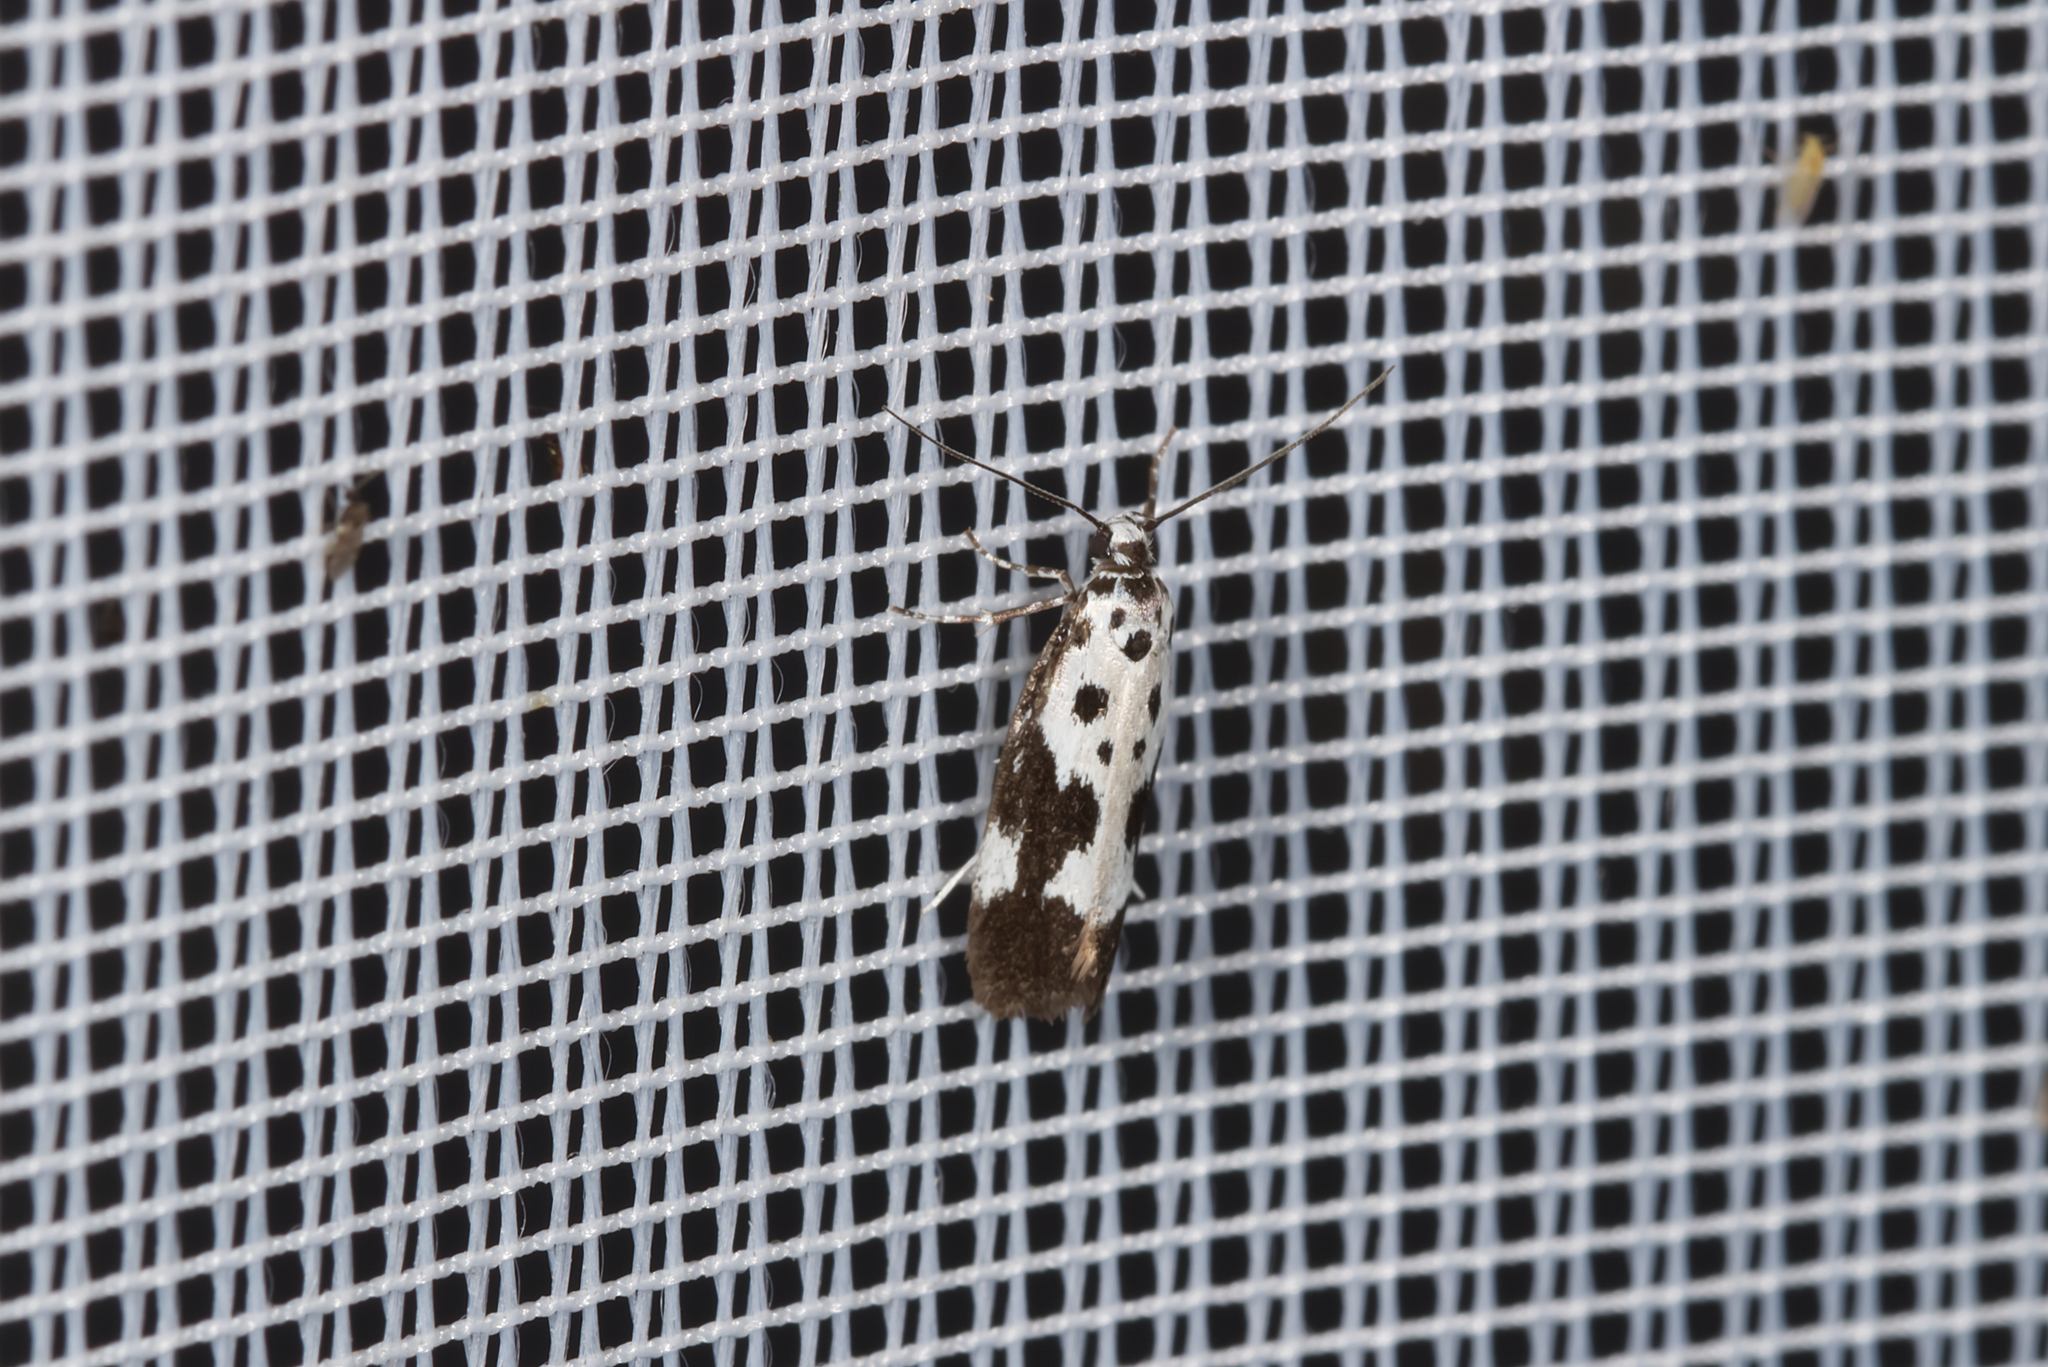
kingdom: Animalia
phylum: Arthropoda
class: Insecta
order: Lepidoptera
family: Ethmiidae
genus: Ethmia
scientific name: Ethmia quadrillella
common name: Comfrey ermel
